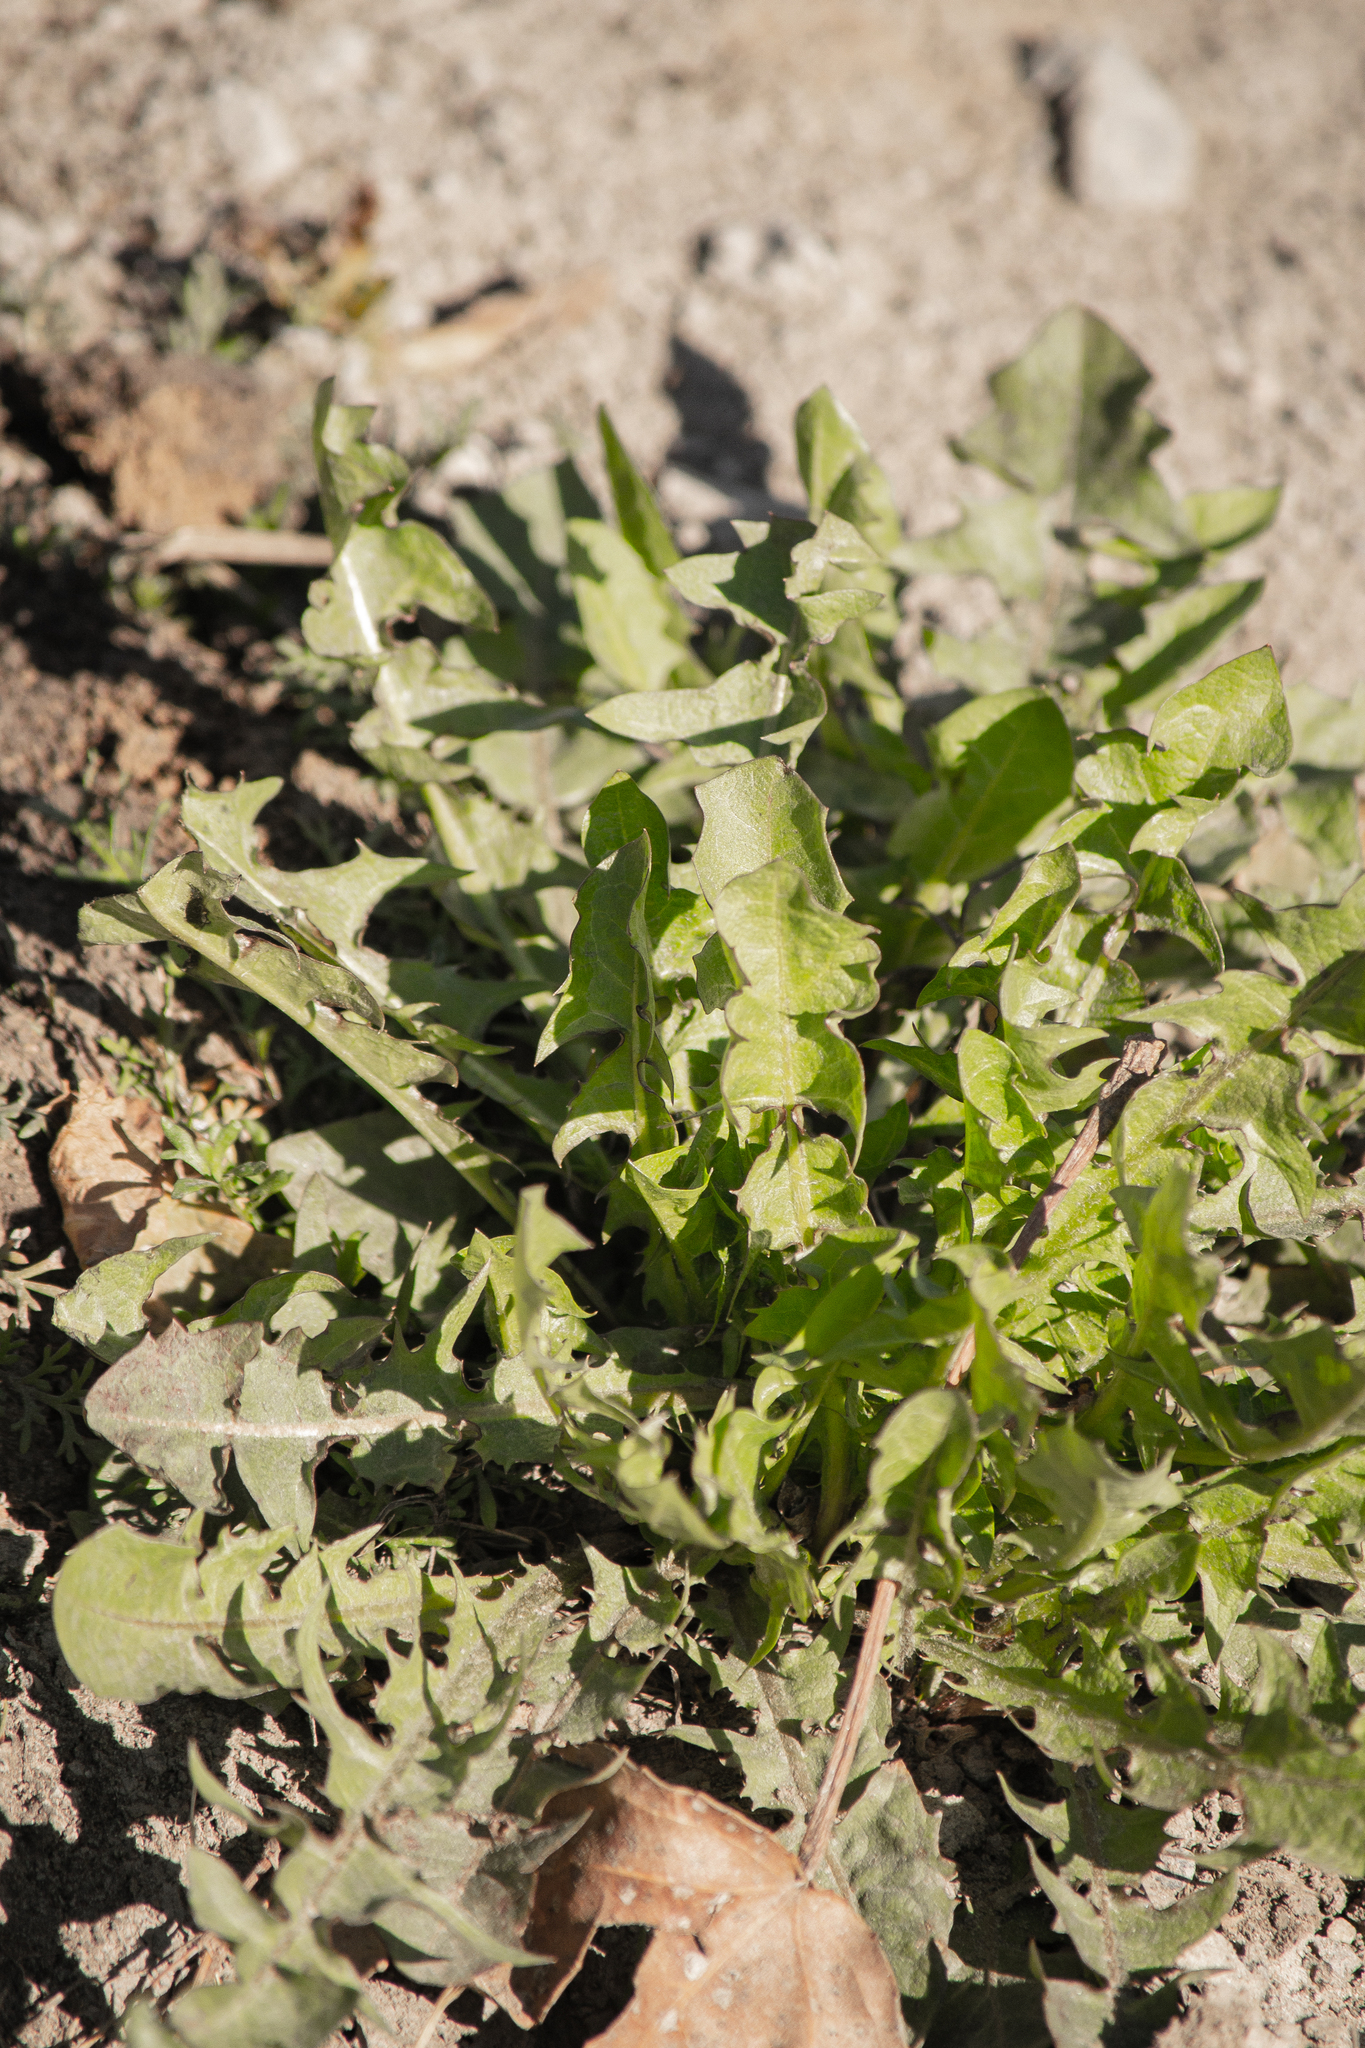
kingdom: Plantae
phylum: Tracheophyta
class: Magnoliopsida
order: Asterales
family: Asteraceae
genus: Taraxacum
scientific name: Taraxacum officinale
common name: Common dandelion
